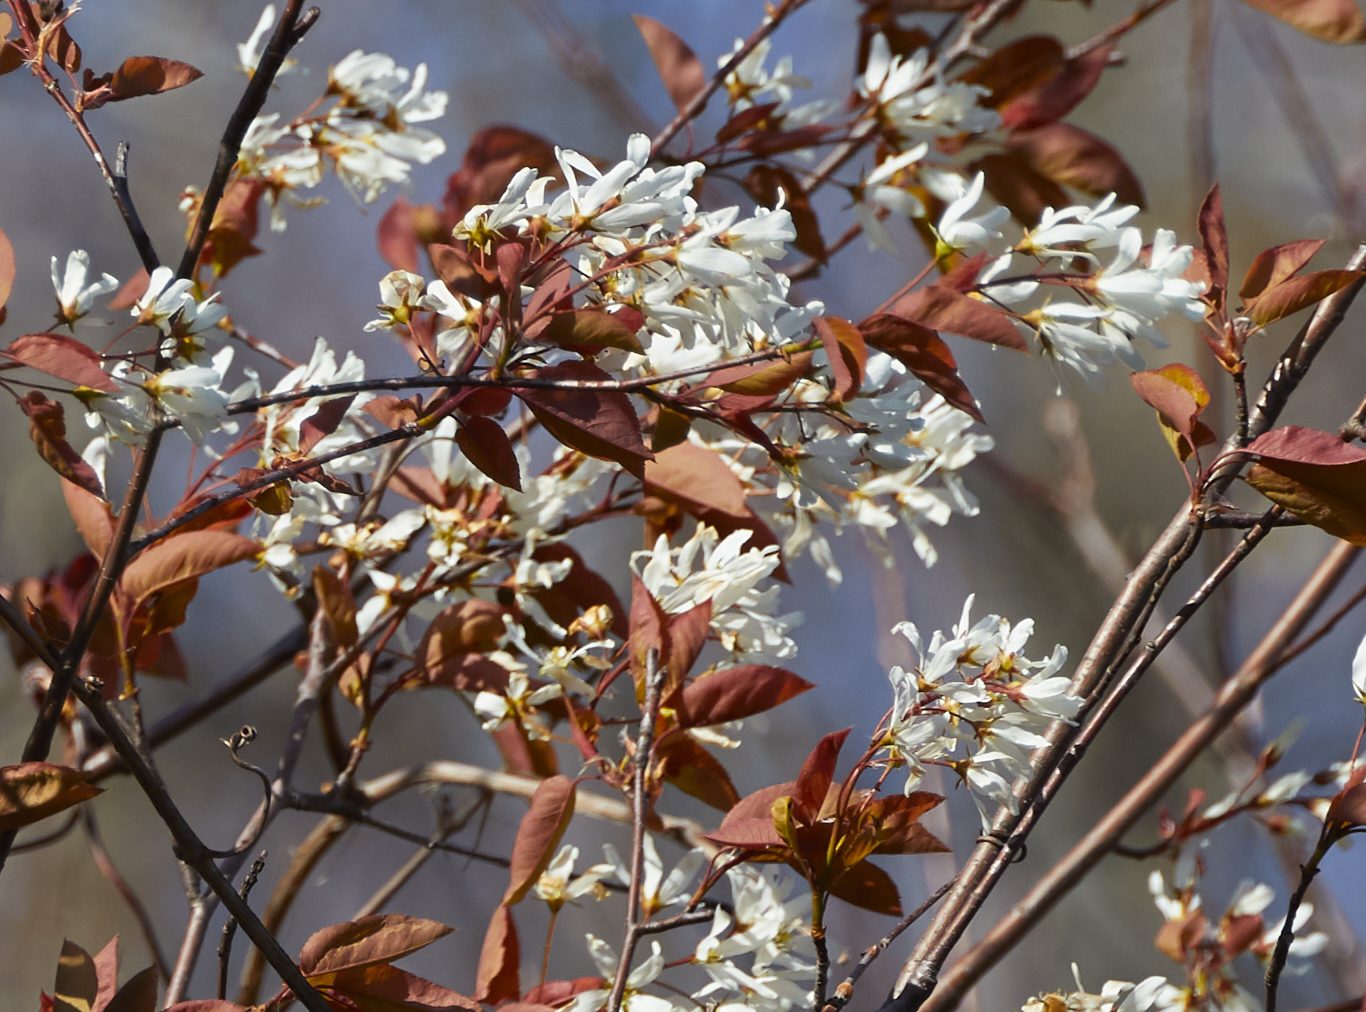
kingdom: Plantae
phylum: Tracheophyta
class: Magnoliopsida
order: Rosales
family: Rosaceae
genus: Amelanchier
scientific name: Amelanchier laevis
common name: Allegheny serviceberry
